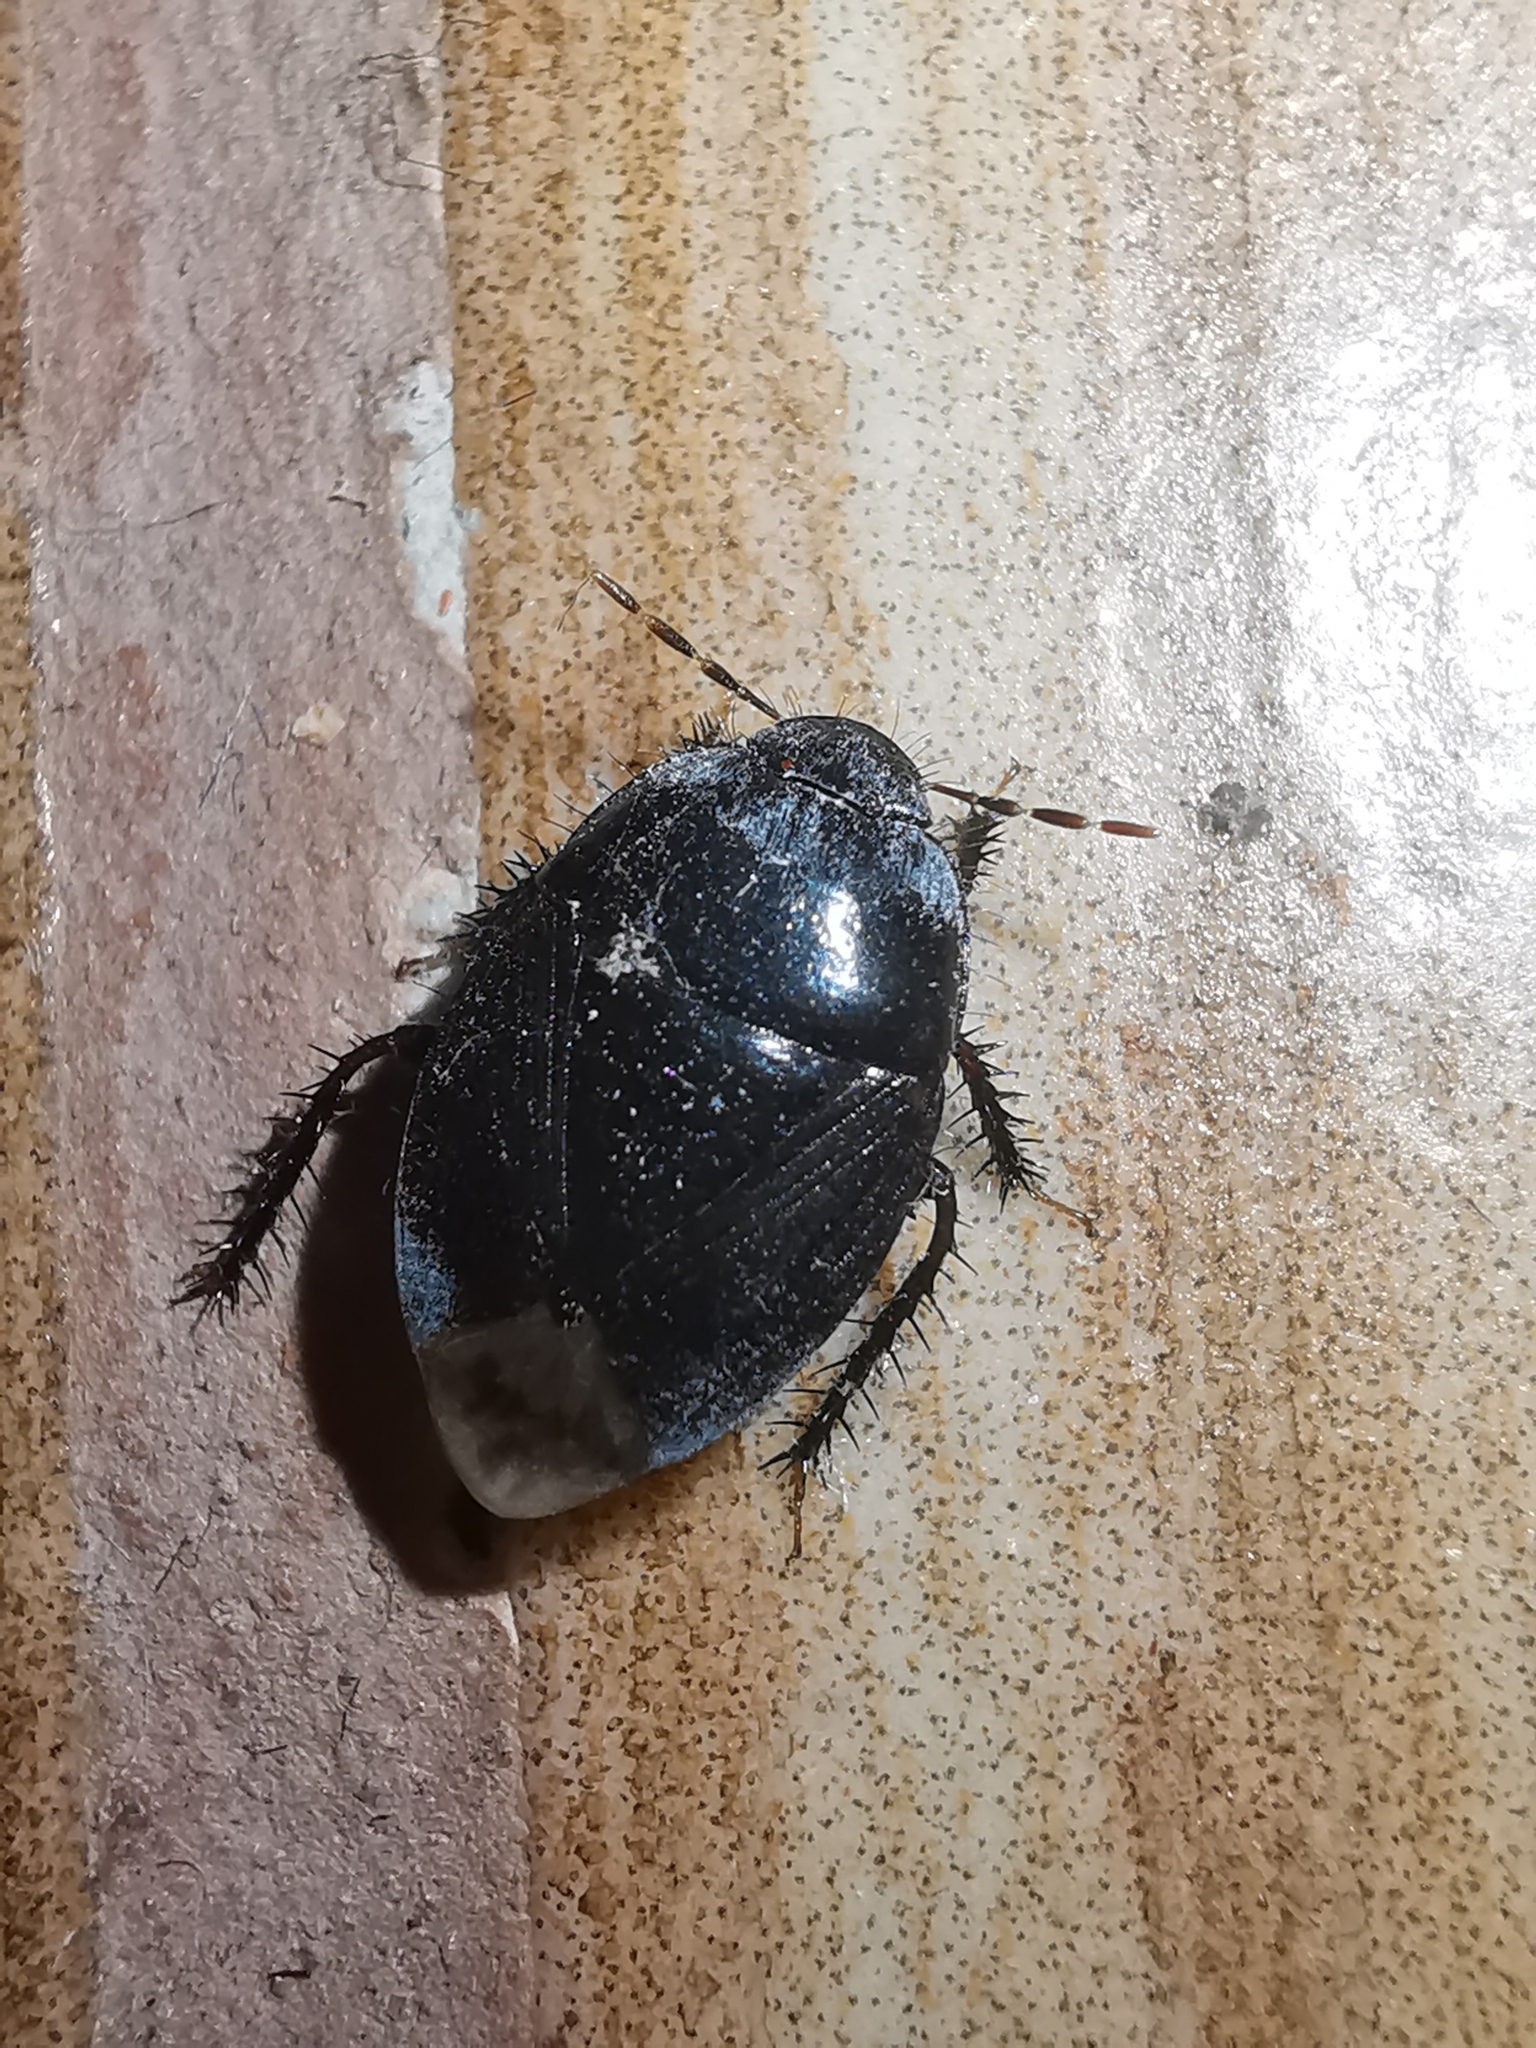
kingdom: Animalia
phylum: Arthropoda
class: Insecta
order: Hemiptera
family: Cydnidae
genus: Macroscytus
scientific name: Macroscytus brunneus
